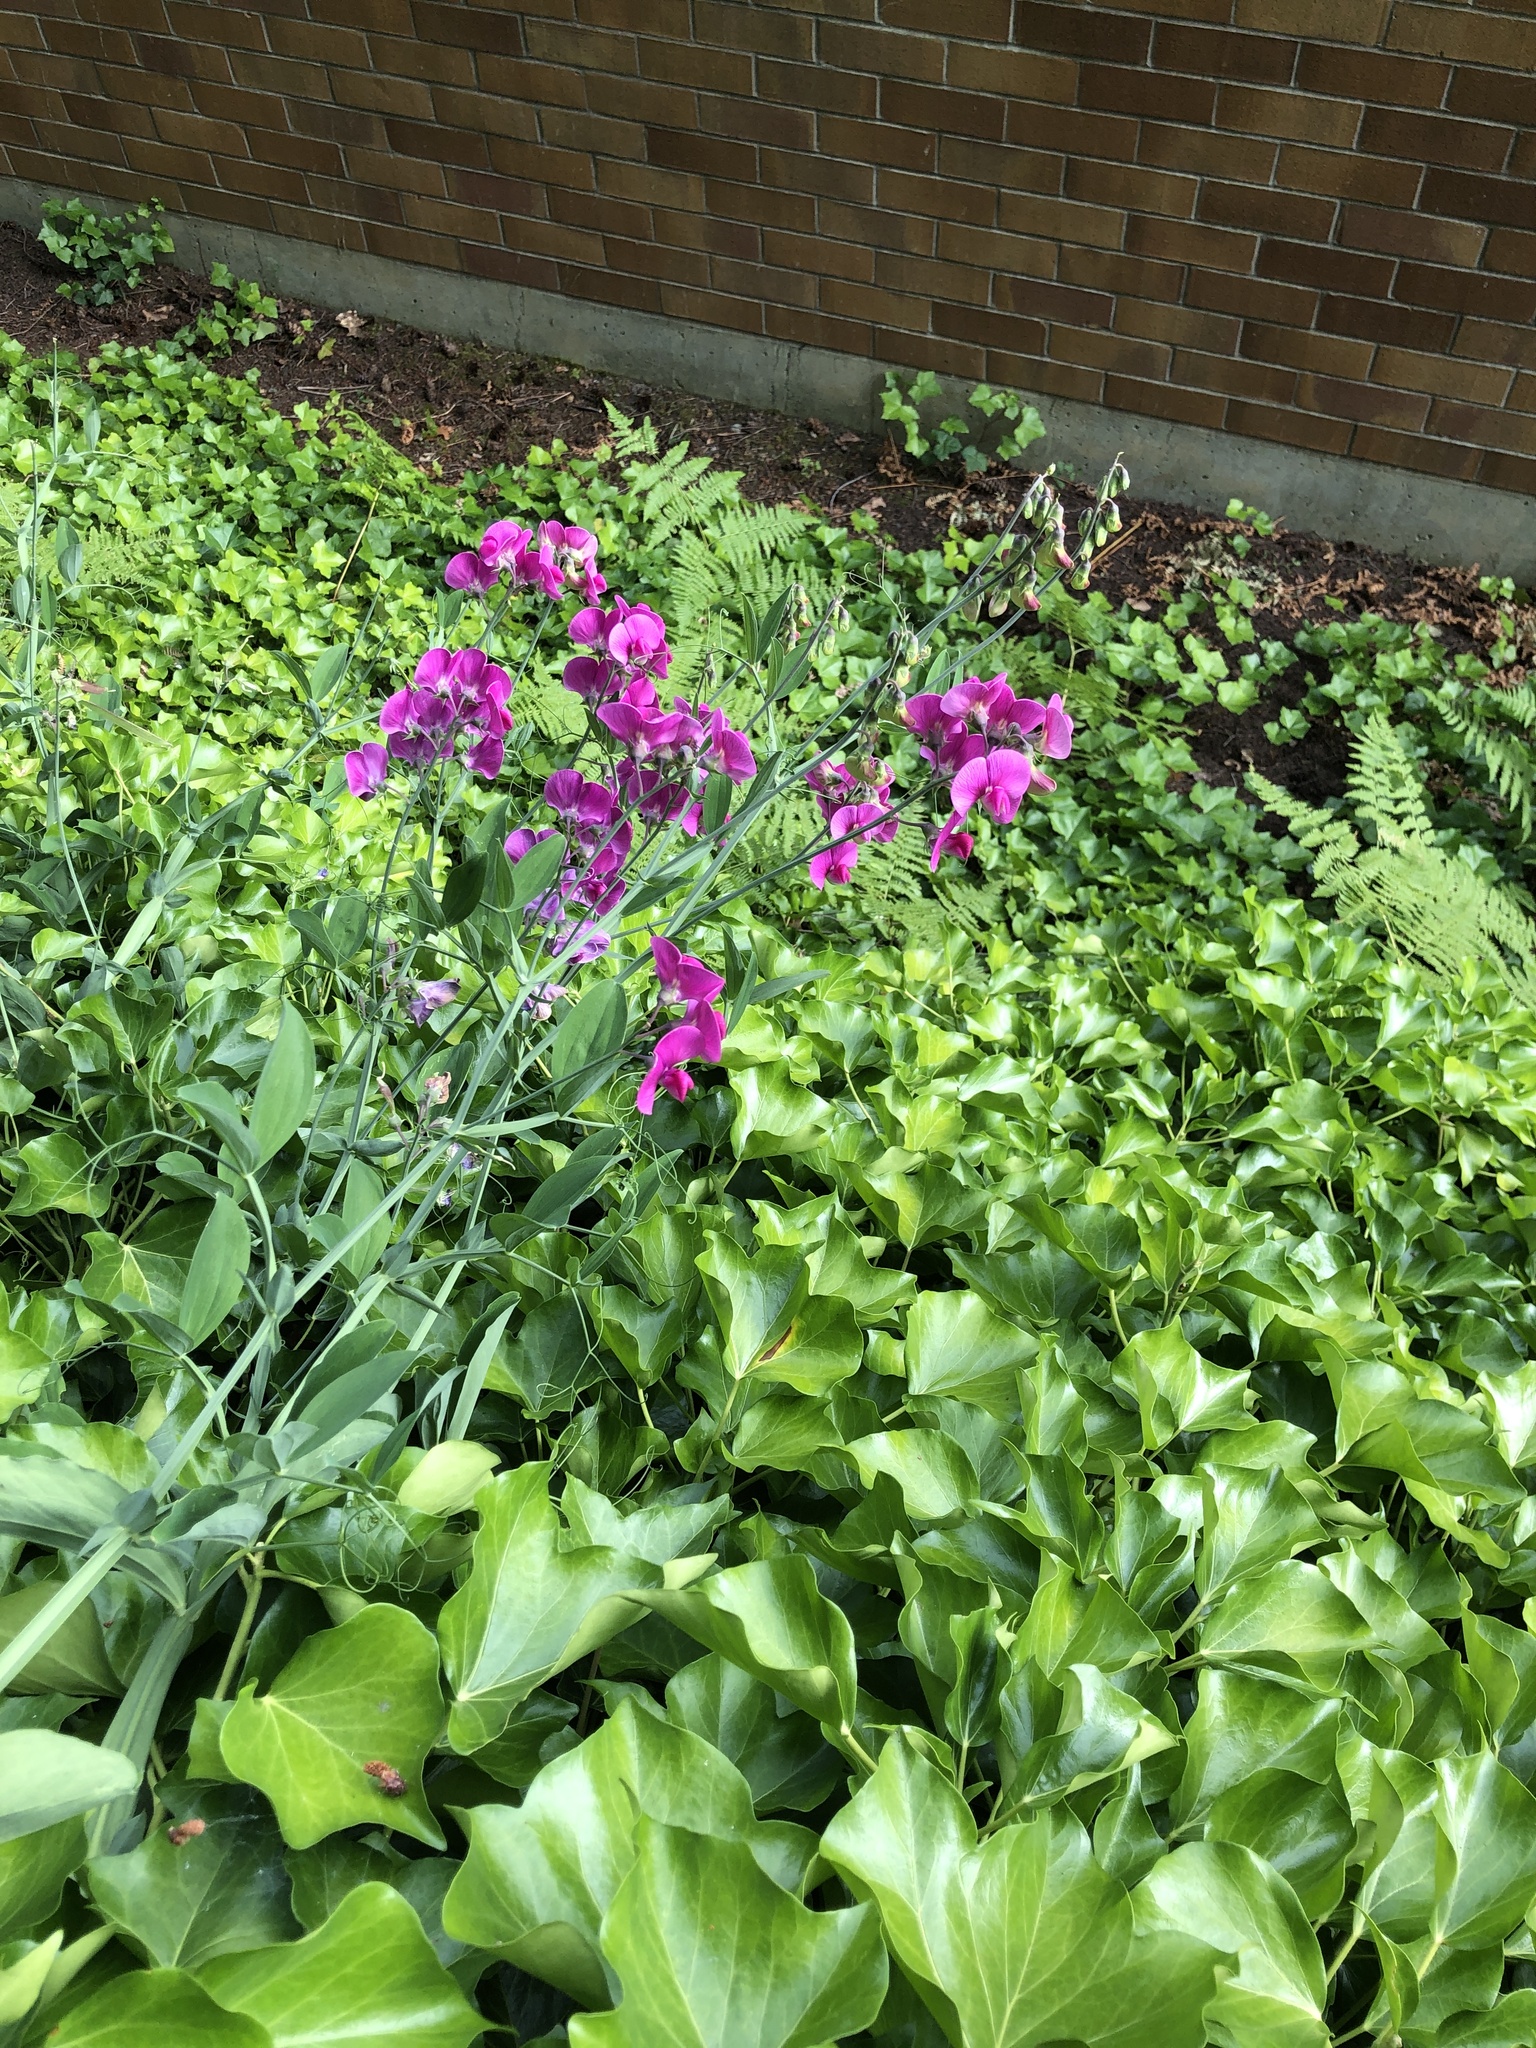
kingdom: Plantae
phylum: Tracheophyta
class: Magnoliopsida
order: Fabales
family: Fabaceae
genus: Lathyrus
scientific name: Lathyrus latifolius
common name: Perennial pea
